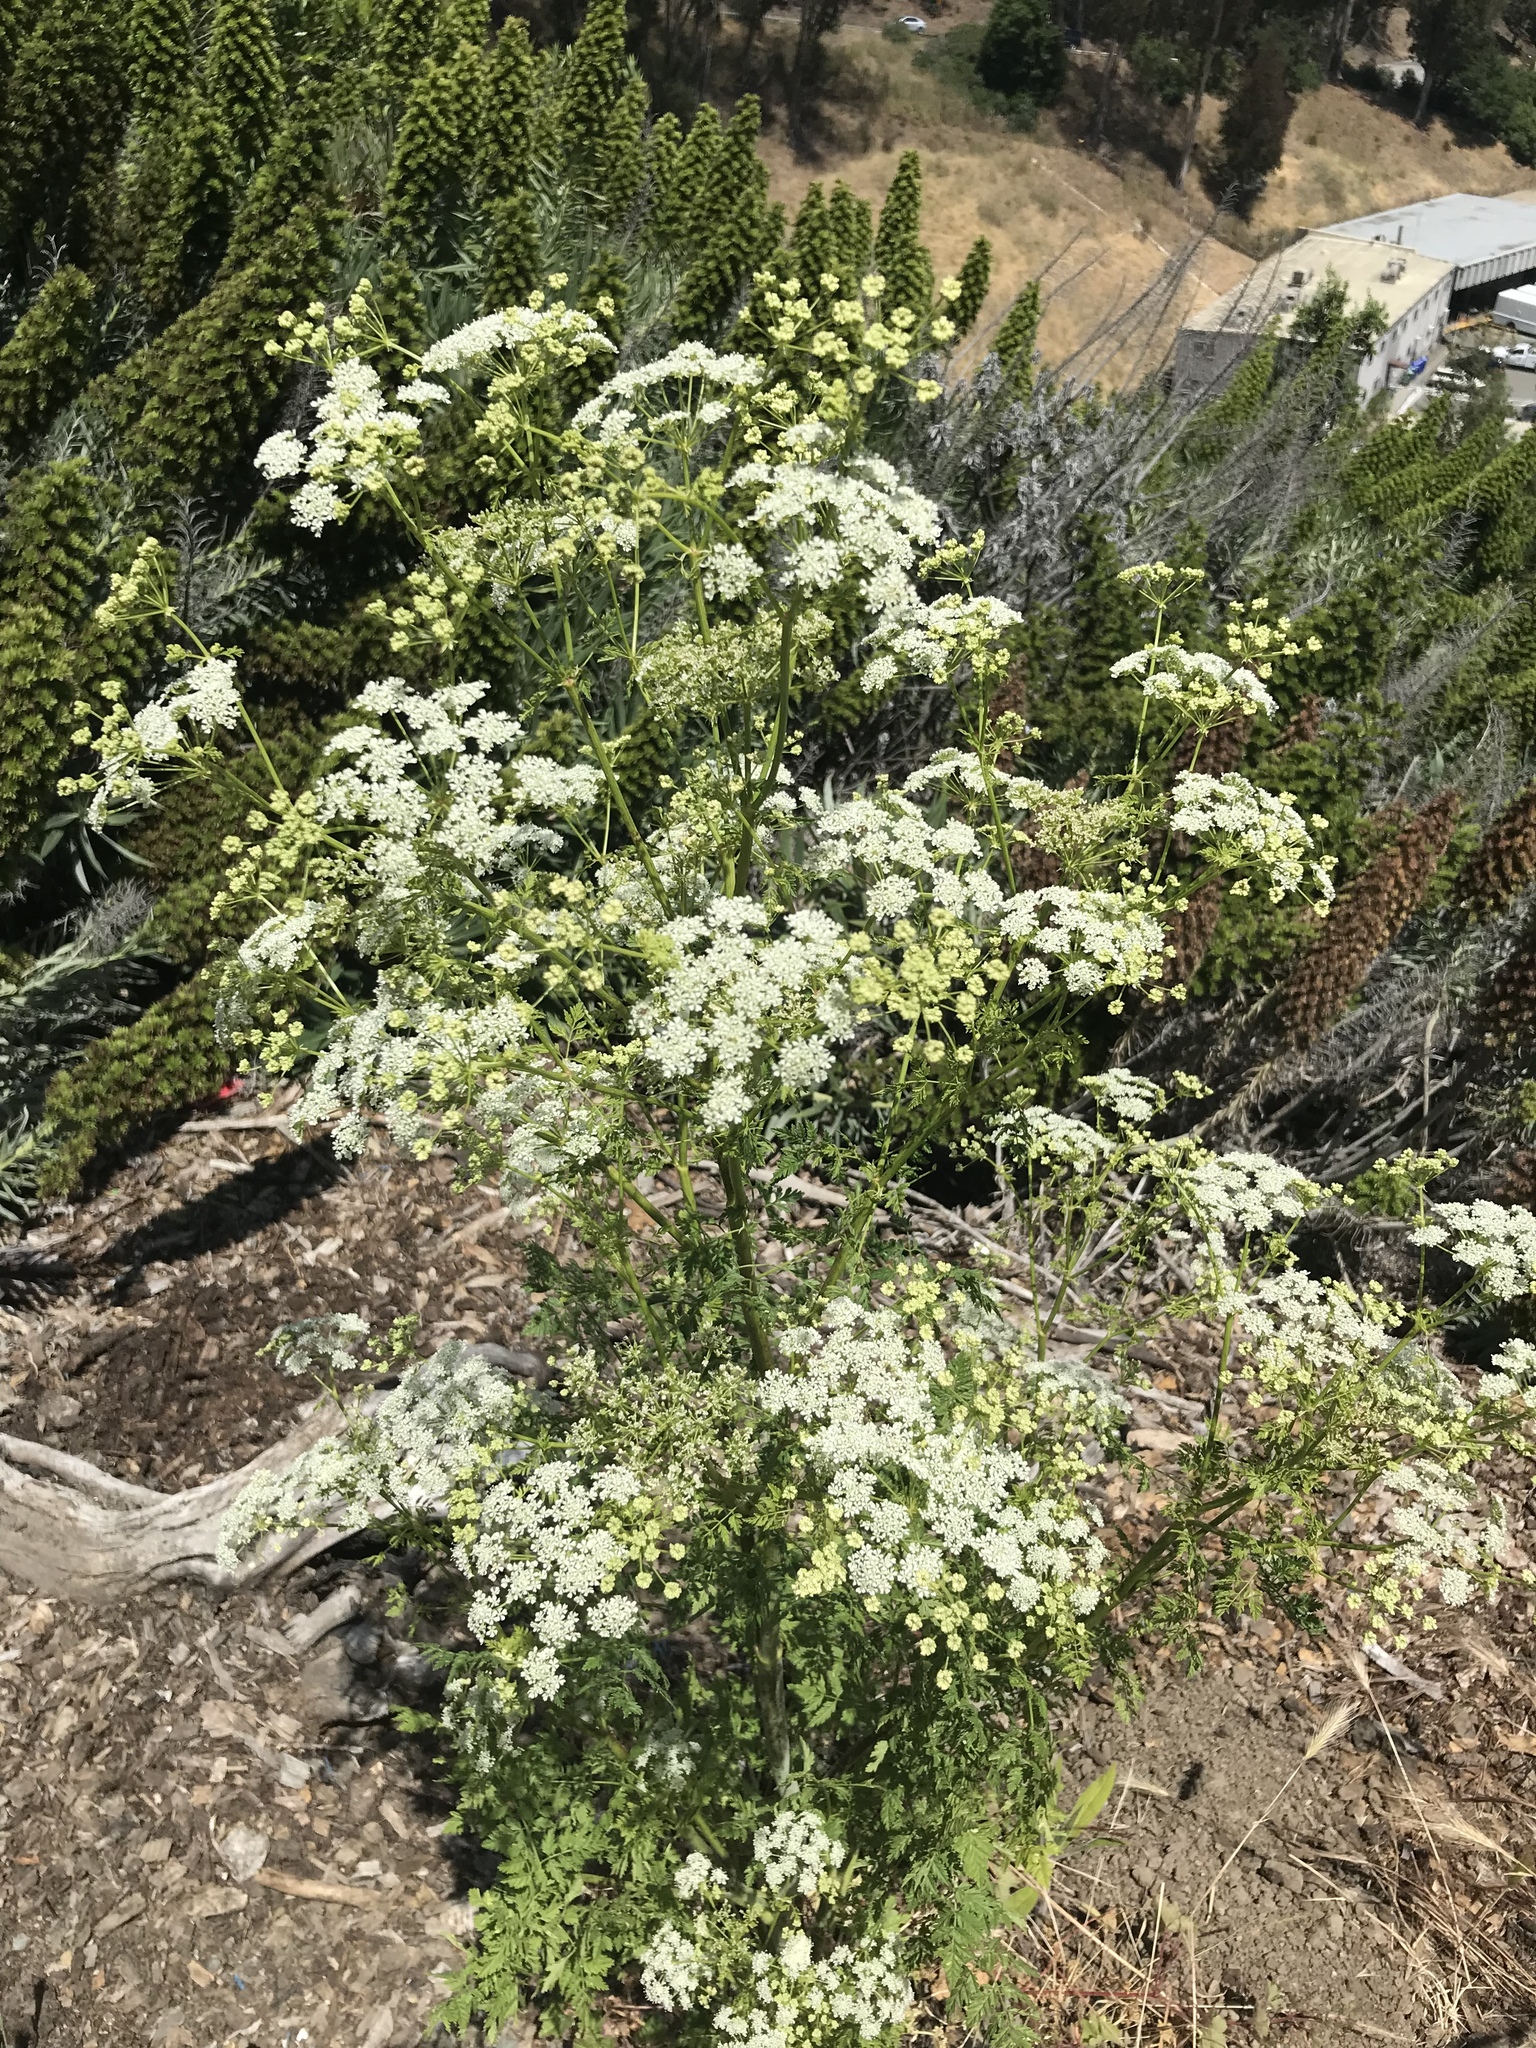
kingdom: Plantae
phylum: Tracheophyta
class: Magnoliopsida
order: Apiales
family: Apiaceae
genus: Conium
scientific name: Conium maculatum
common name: Hemlock
